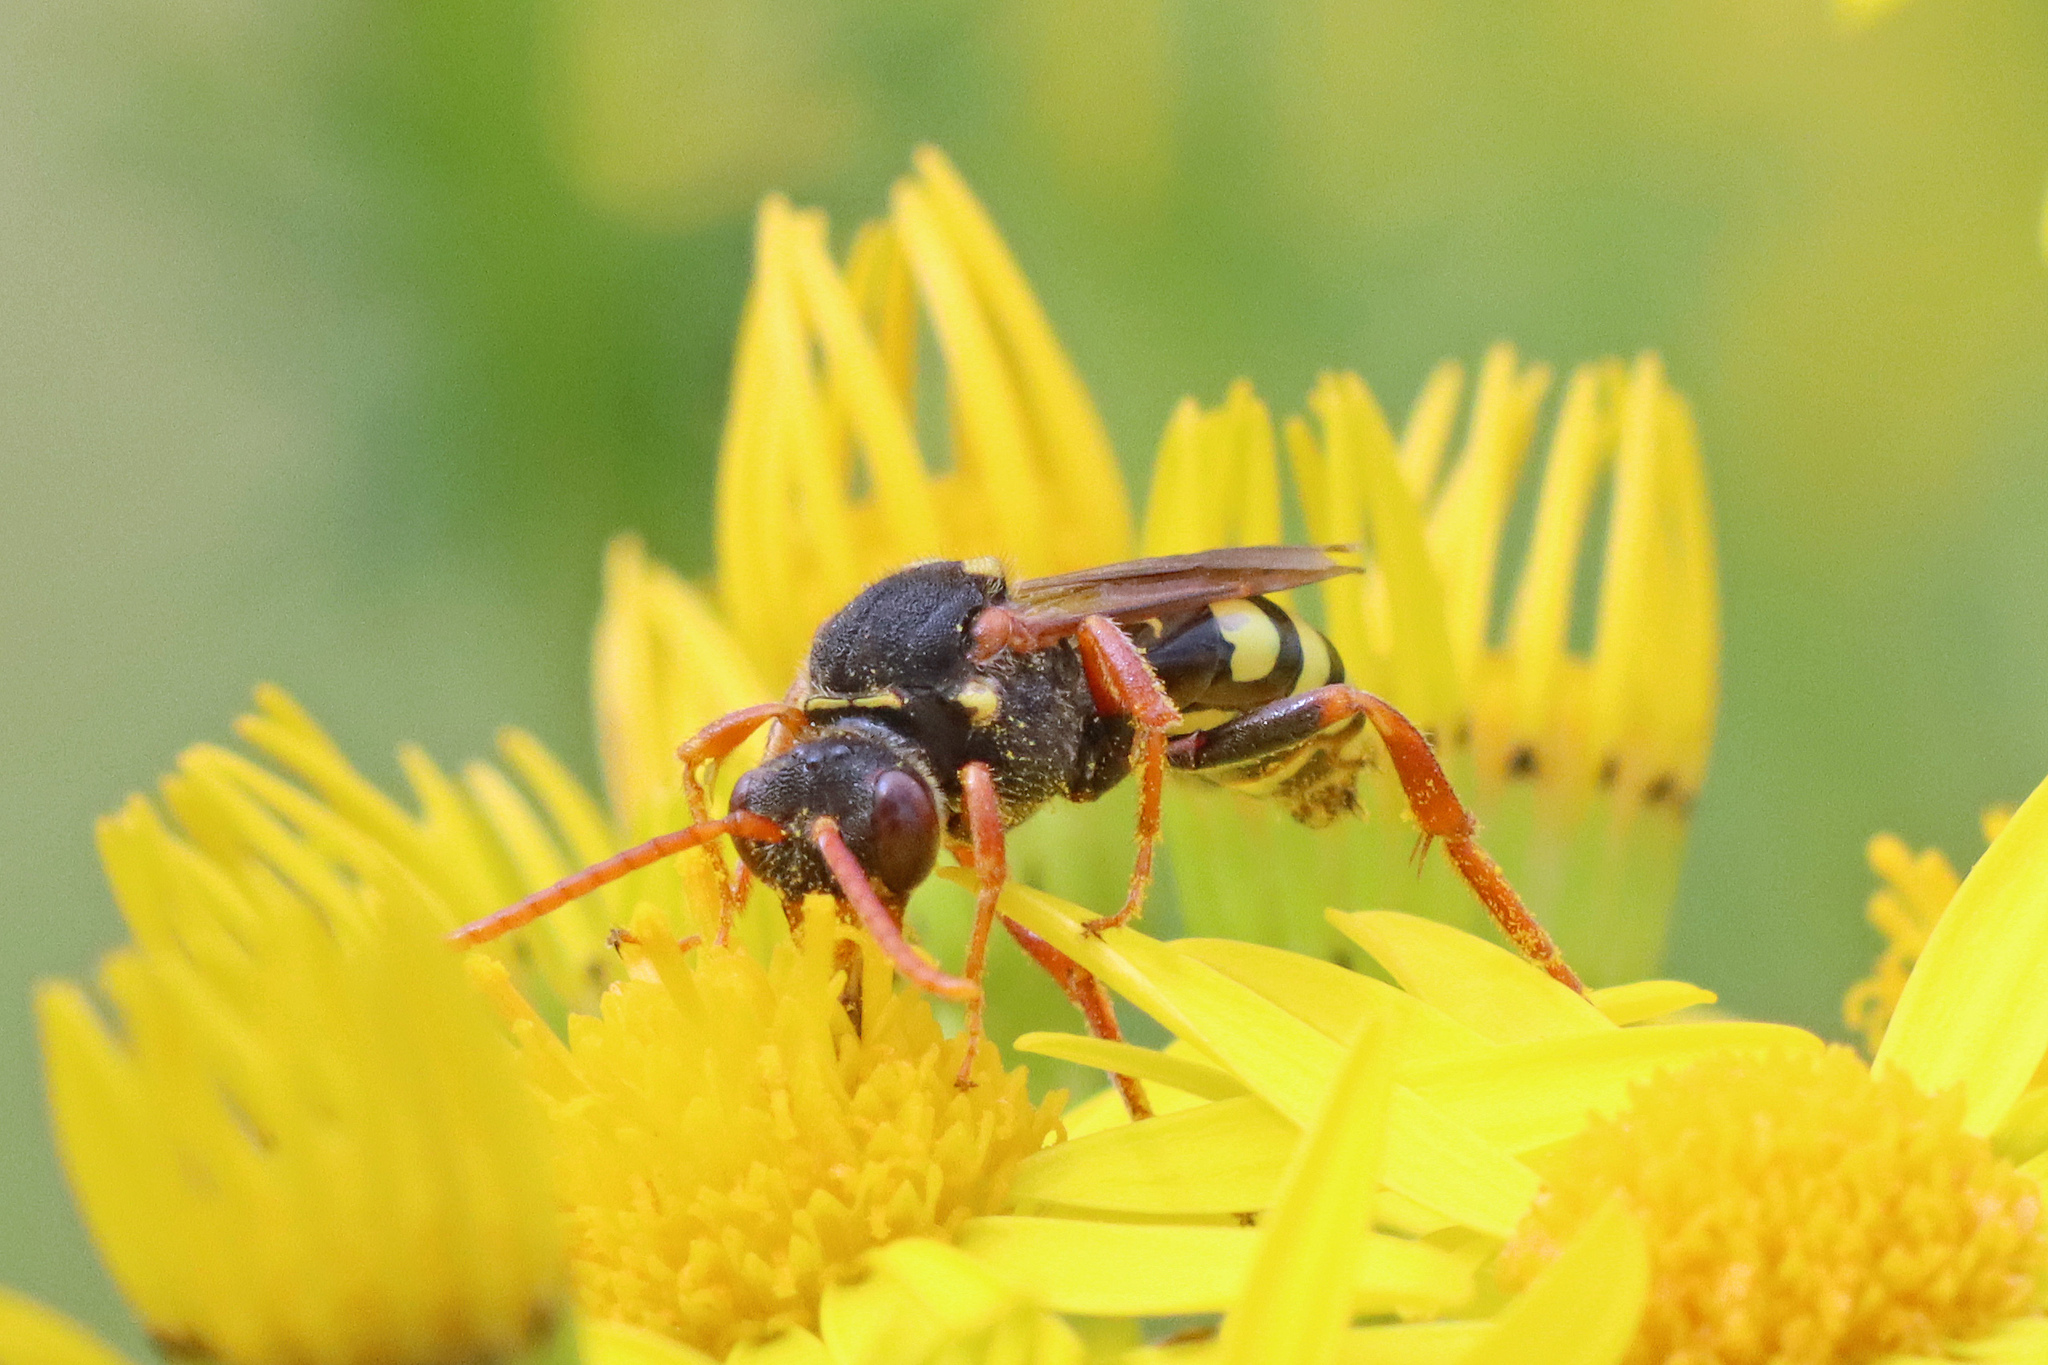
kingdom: Animalia
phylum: Arthropoda
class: Insecta
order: Hymenoptera
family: Apidae
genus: Nomada
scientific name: Nomada marshamella
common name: Marsham's nomad bee
